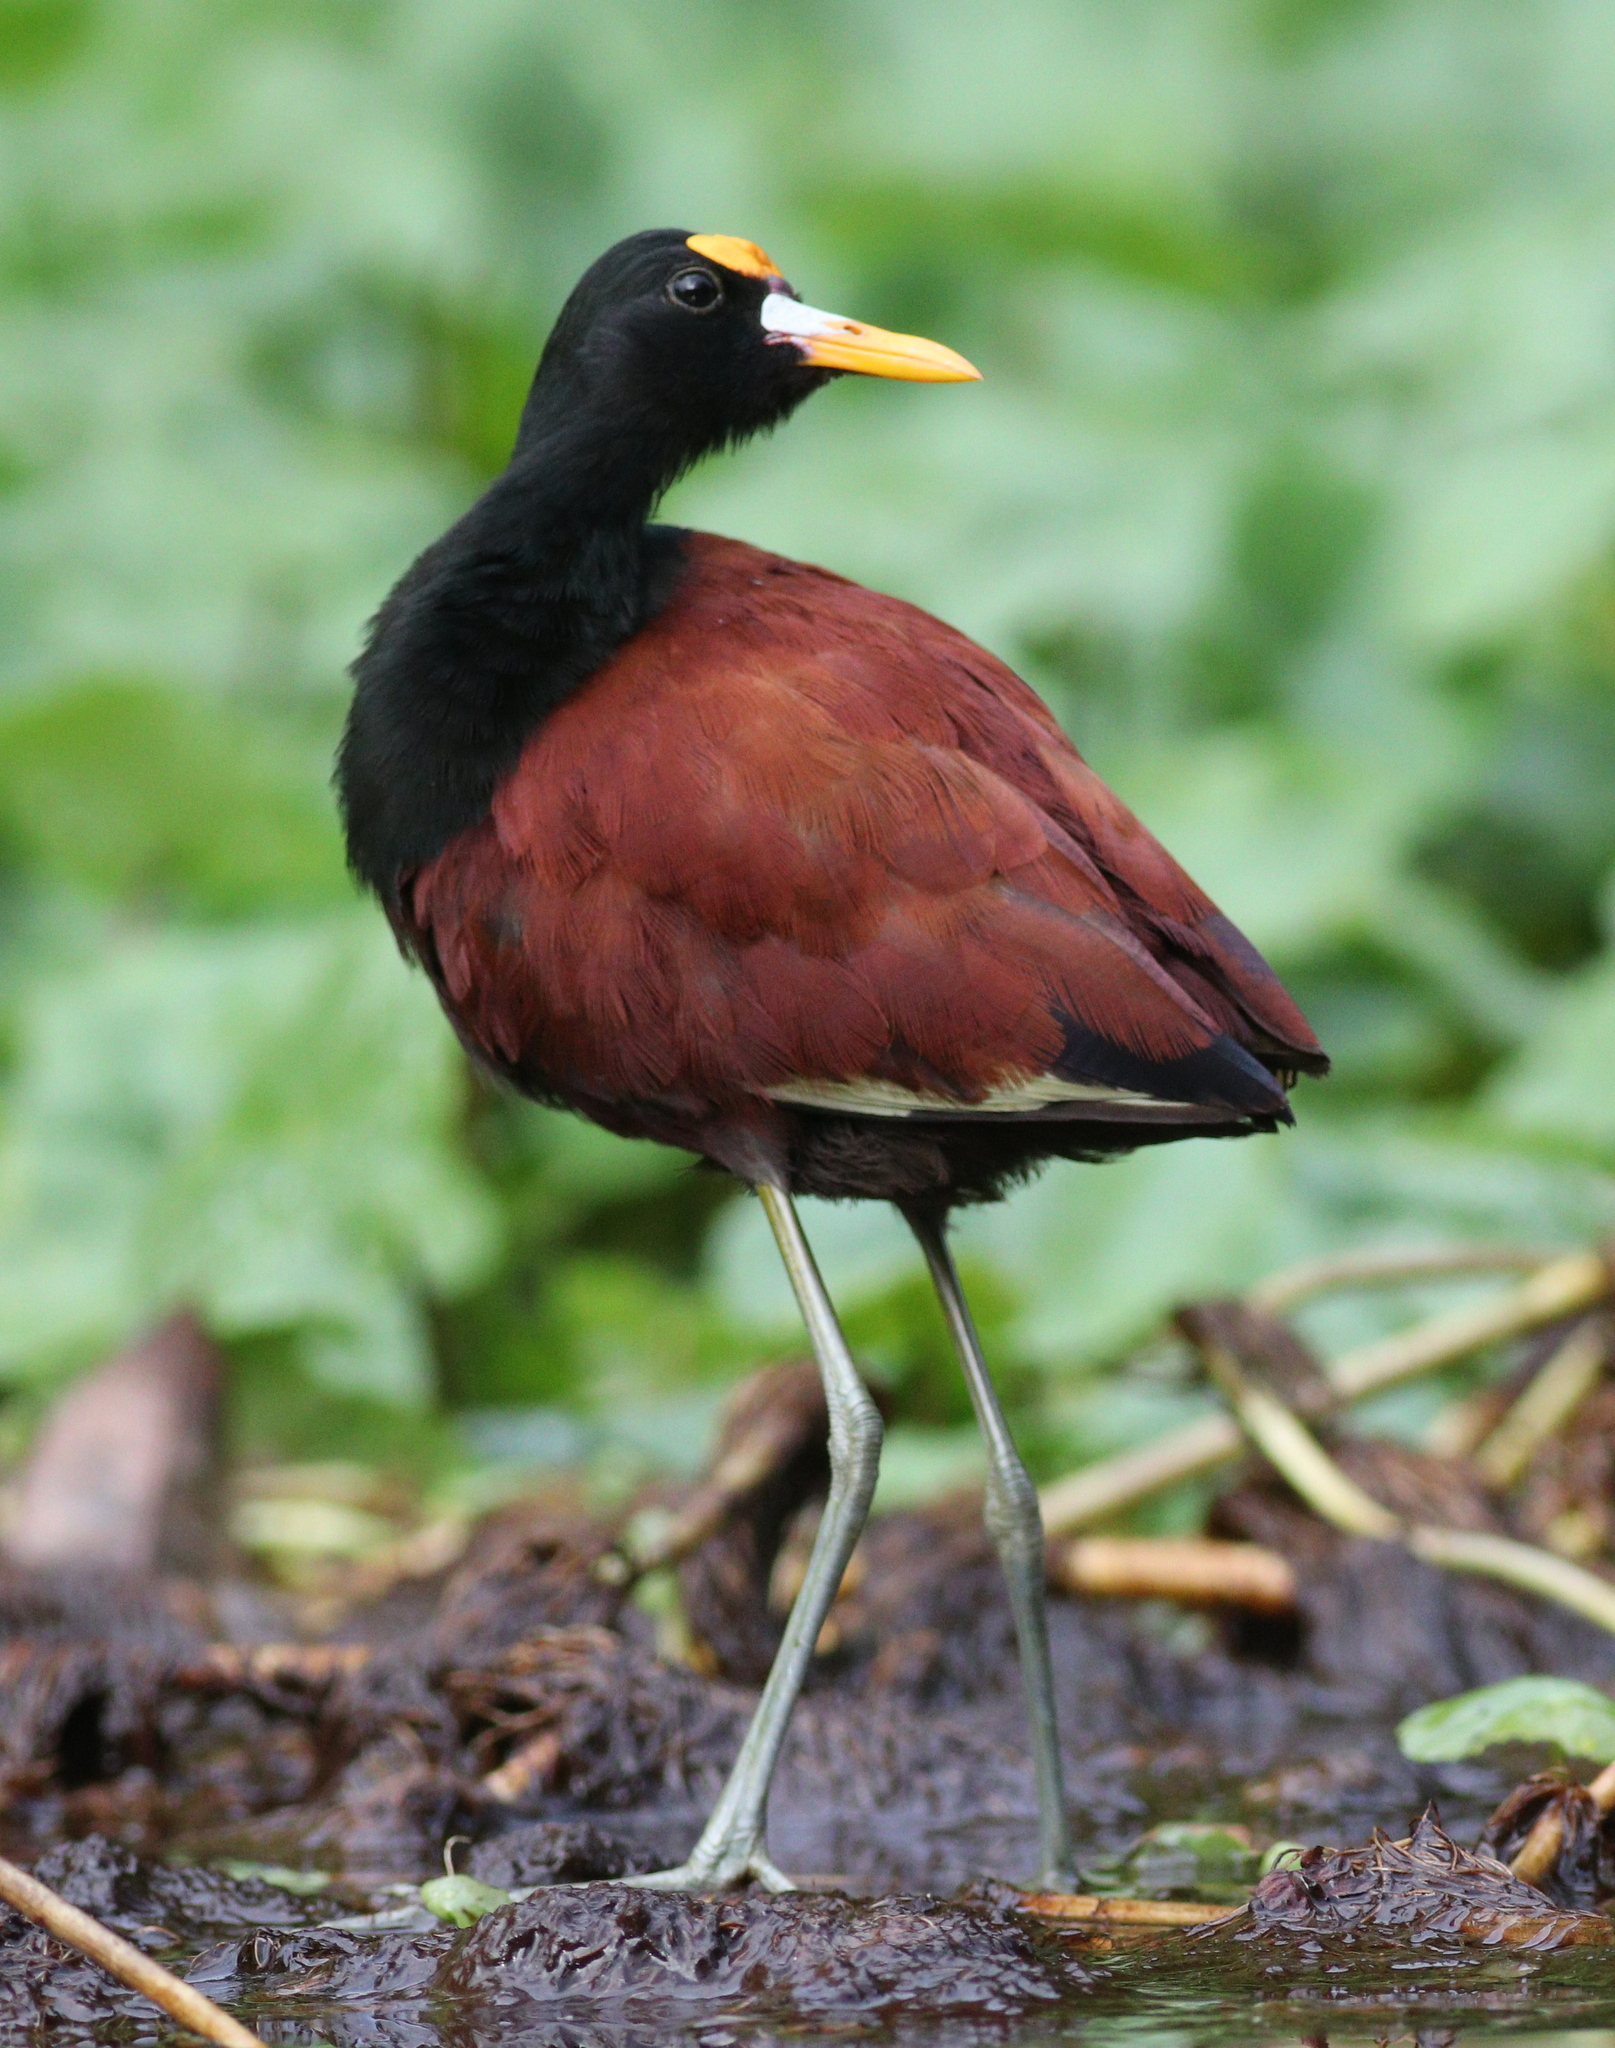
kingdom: Animalia
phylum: Chordata
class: Aves
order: Charadriiformes
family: Jacanidae
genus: Jacana
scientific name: Jacana spinosa
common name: Northern jacana
